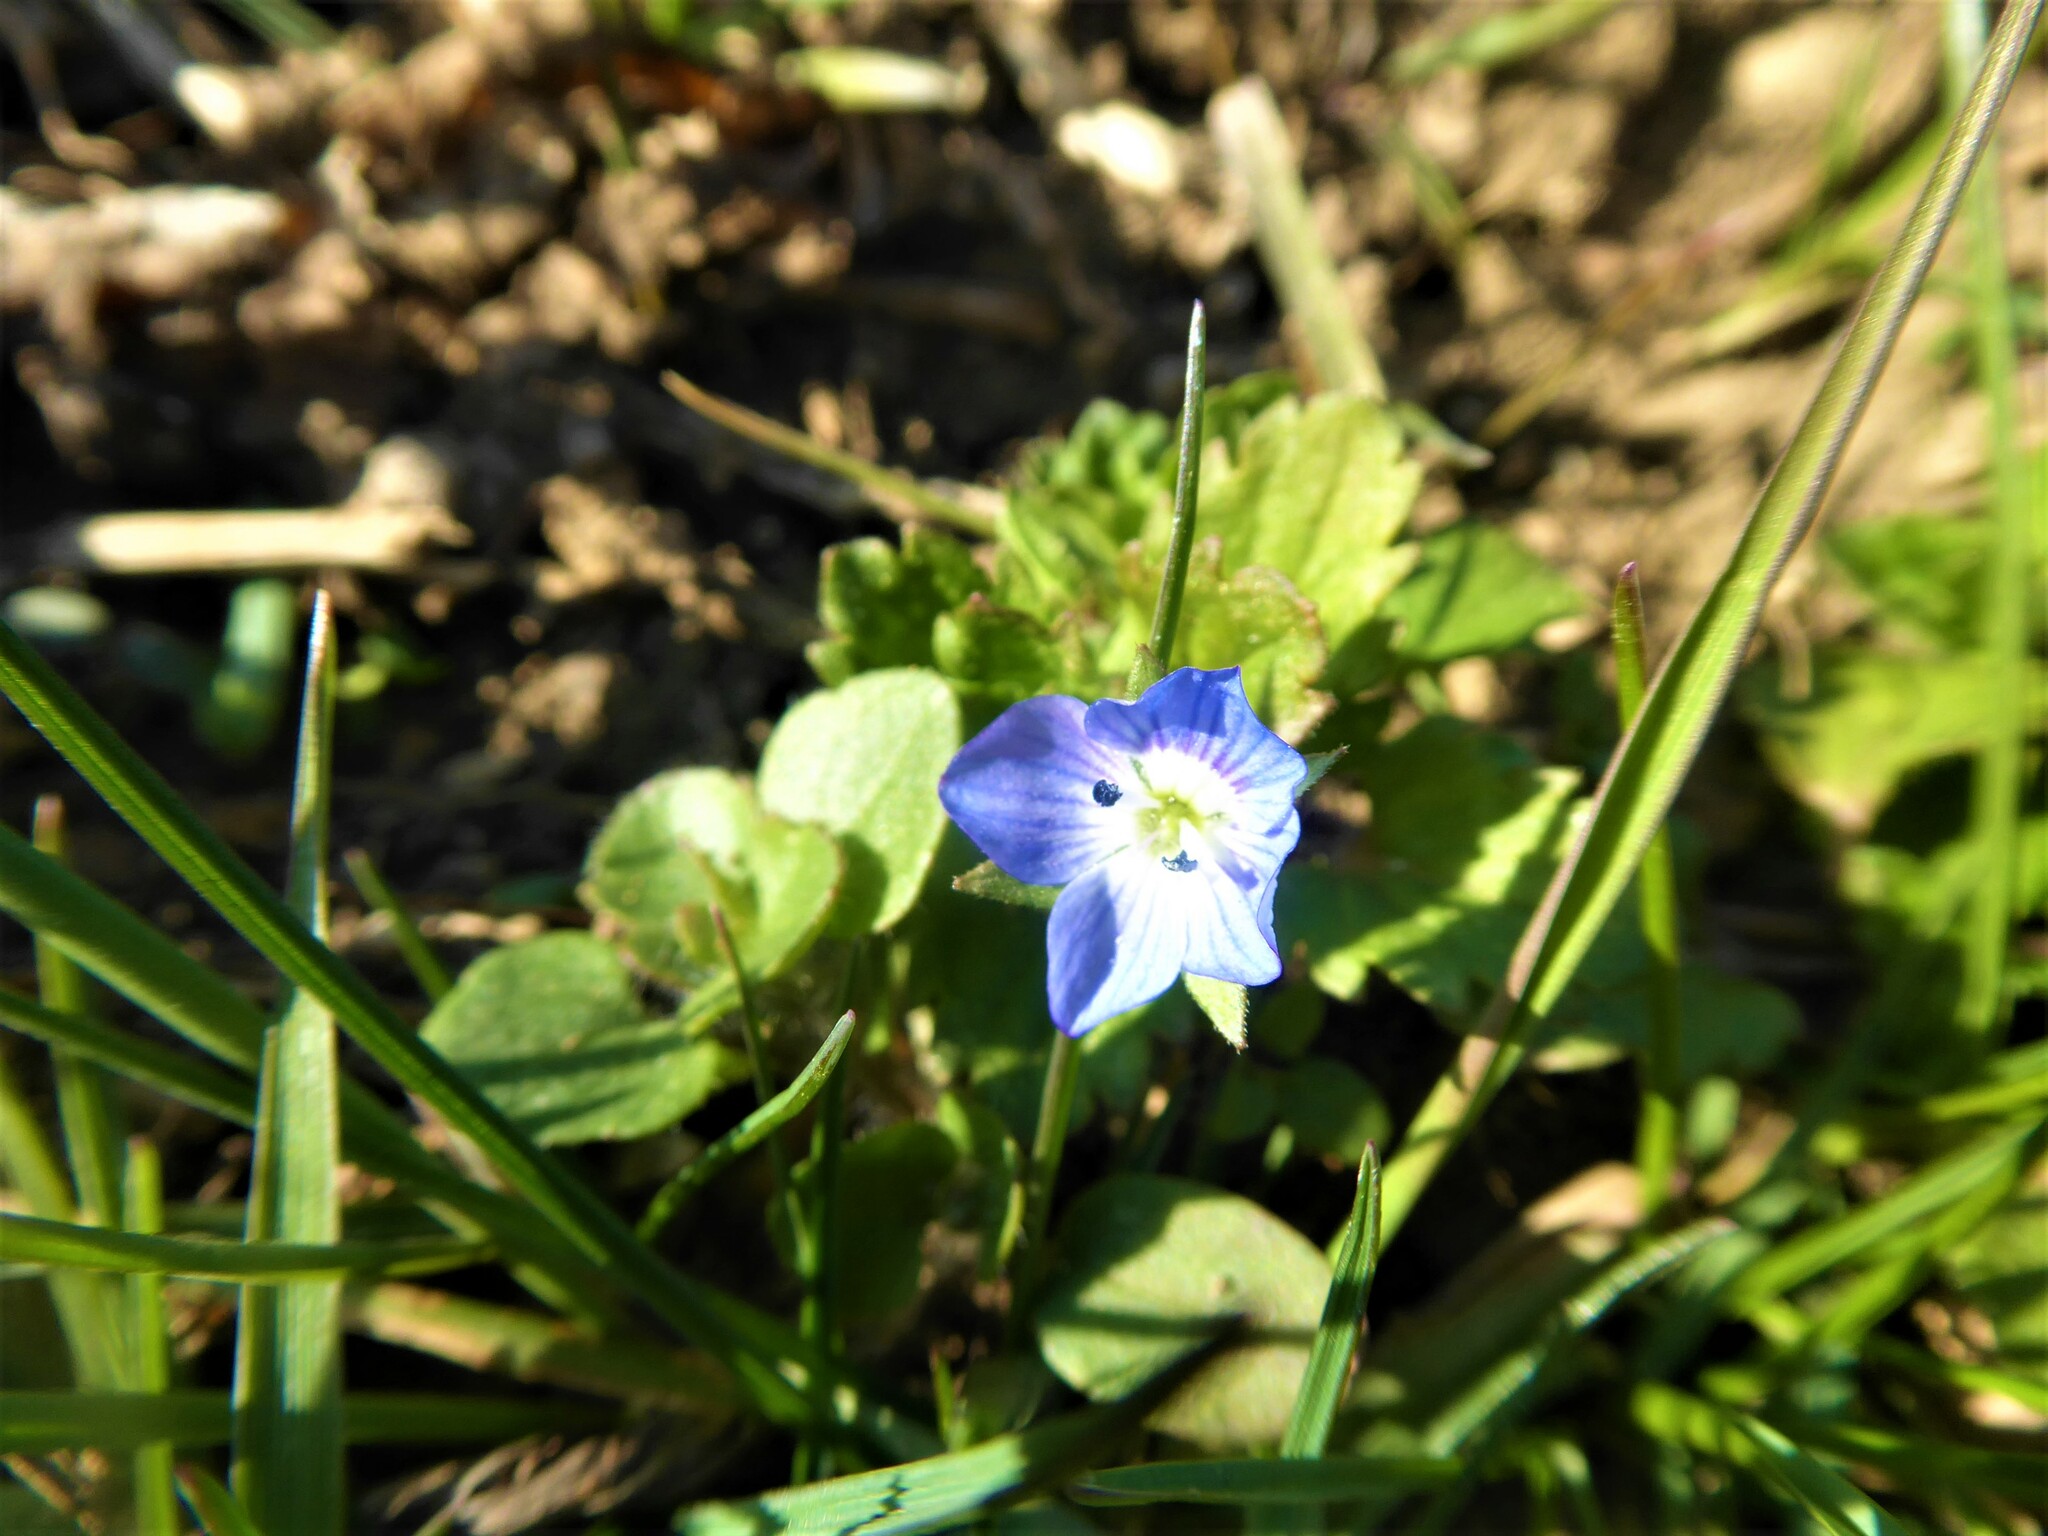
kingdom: Plantae
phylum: Tracheophyta
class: Magnoliopsida
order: Lamiales
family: Plantaginaceae
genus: Veronica
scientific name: Veronica persica
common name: Common field-speedwell
